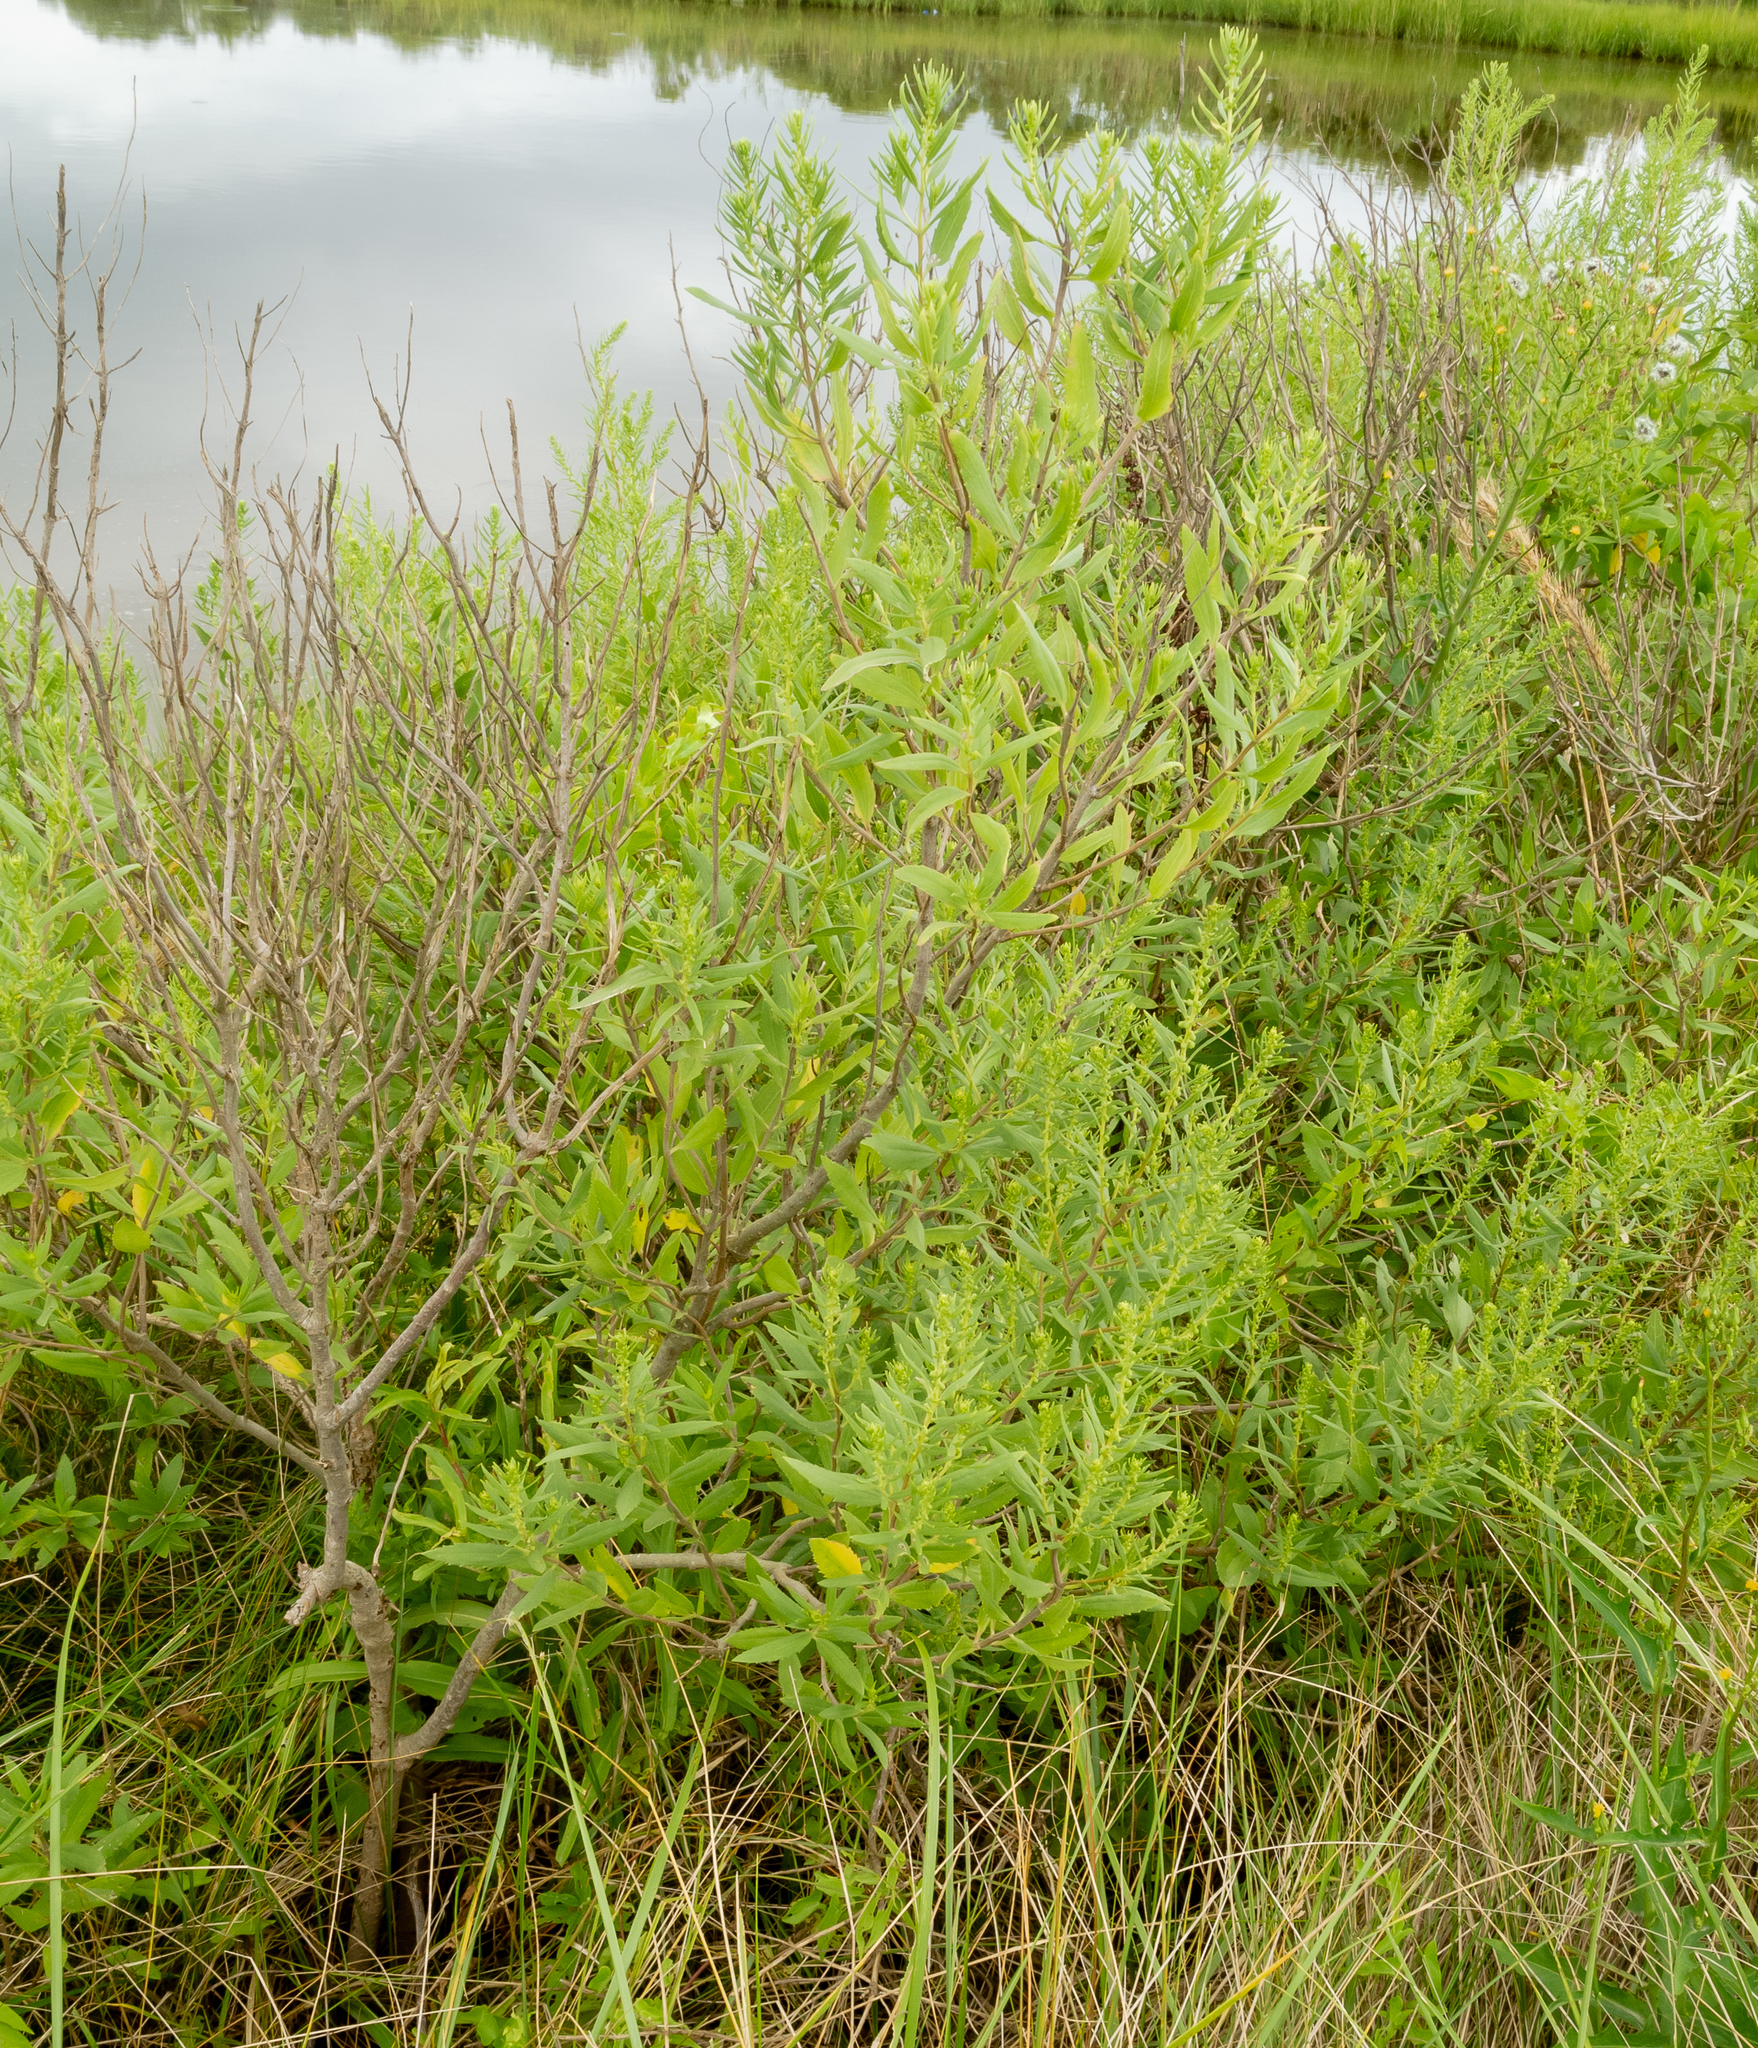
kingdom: Plantae
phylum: Tracheophyta
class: Magnoliopsida
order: Asterales
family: Asteraceae
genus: Baccharis
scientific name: Baccharis halimifolia
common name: Eastern baccharis
